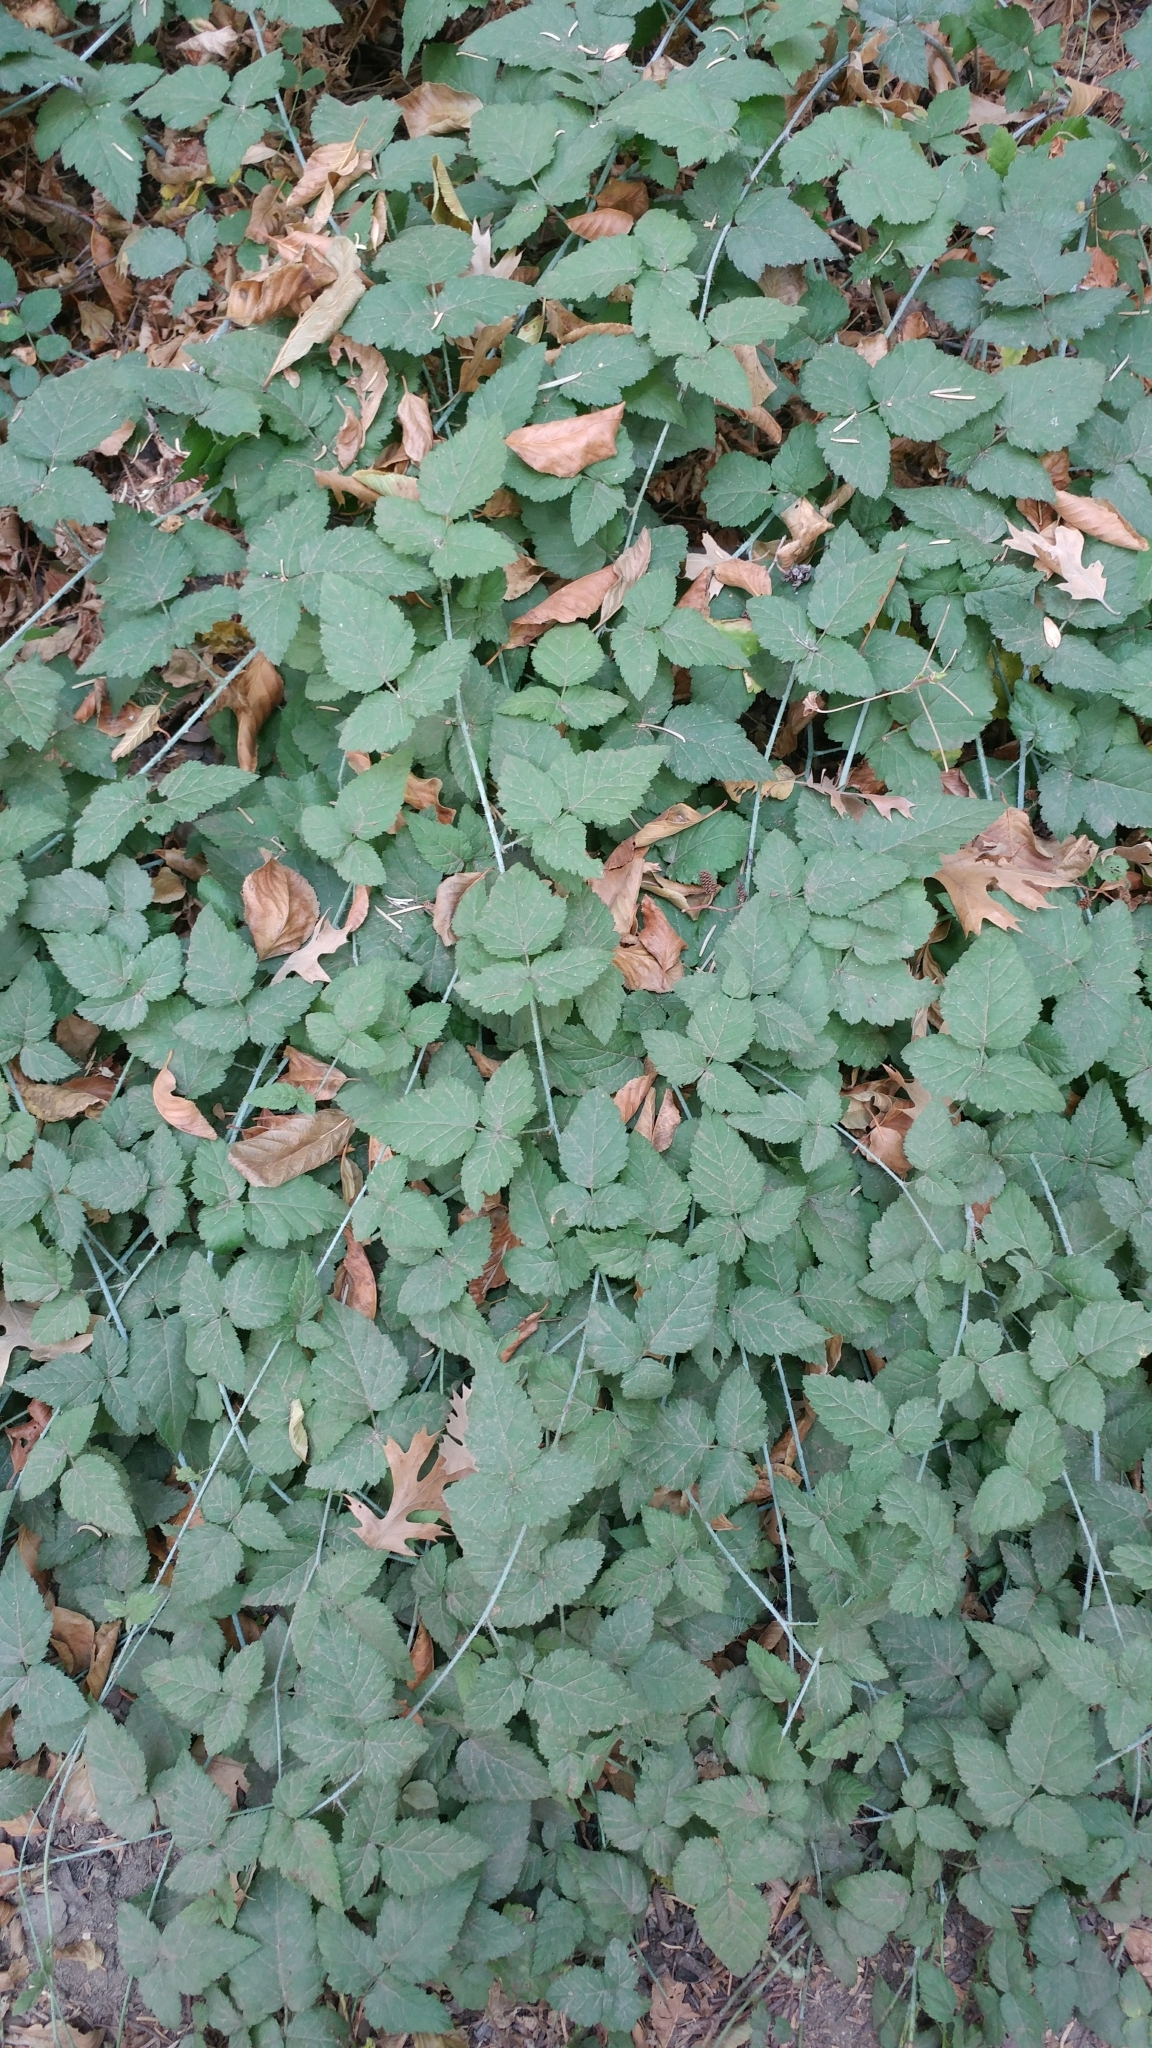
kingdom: Plantae
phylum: Tracheophyta
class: Magnoliopsida
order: Rosales
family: Rosaceae
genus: Rubus
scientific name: Rubus ursinus
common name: Pacific blackberry
